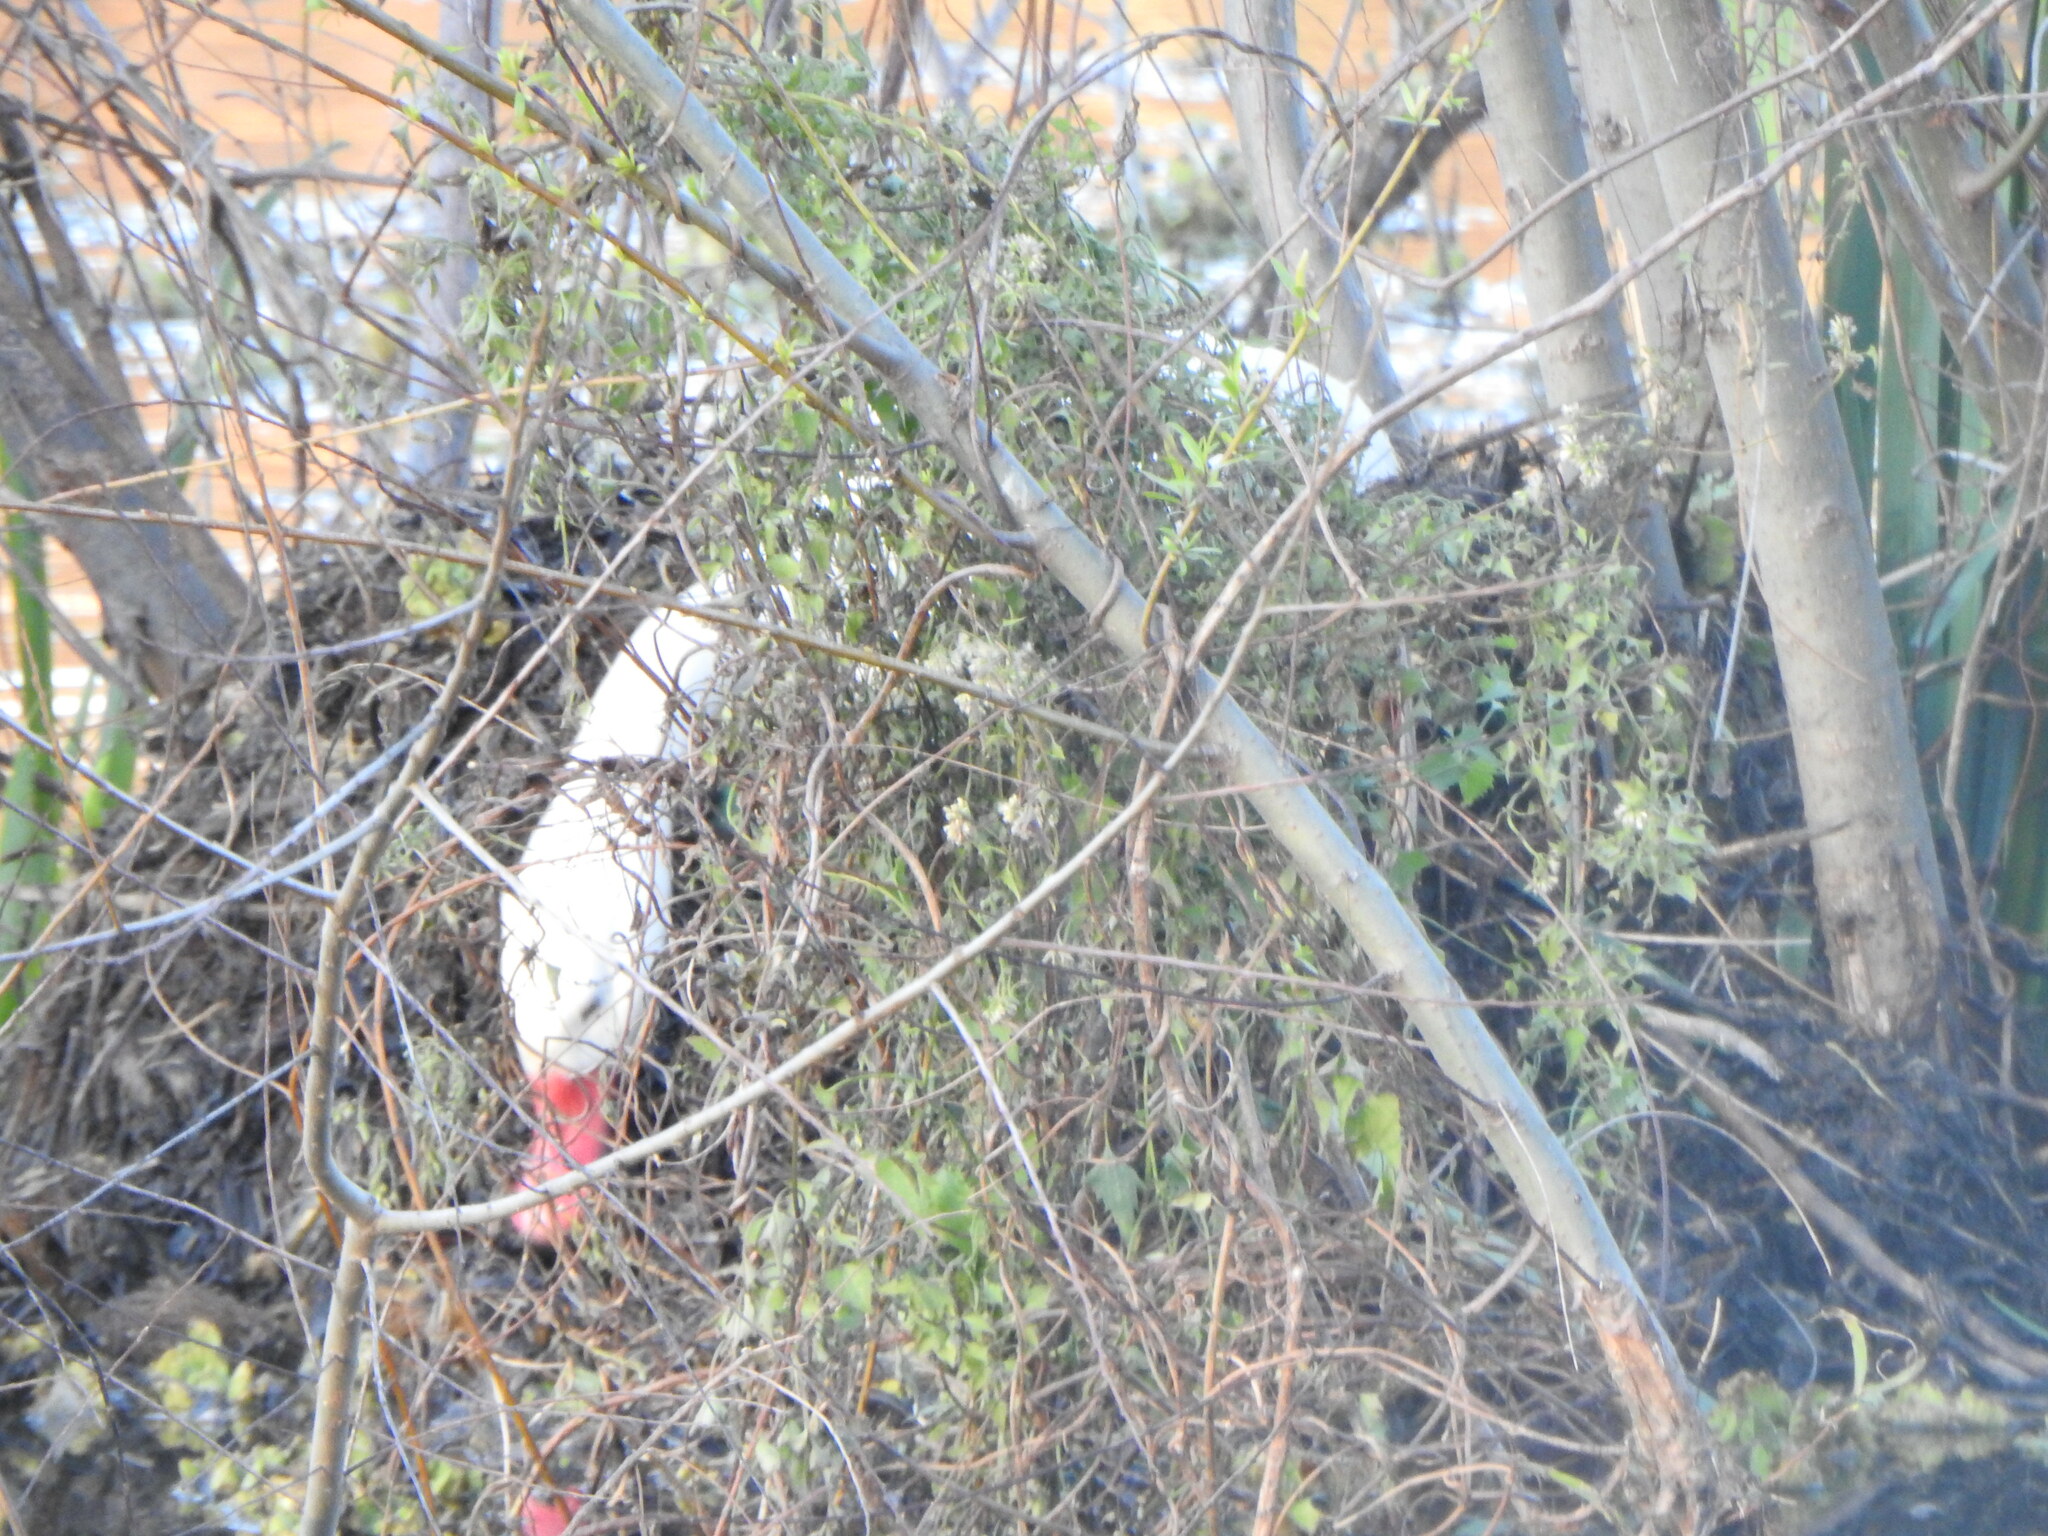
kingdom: Animalia
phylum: Chordata
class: Aves
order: Anseriformes
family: Anatidae
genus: Coscoroba
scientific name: Coscoroba coscoroba
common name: Coscoroba swan
